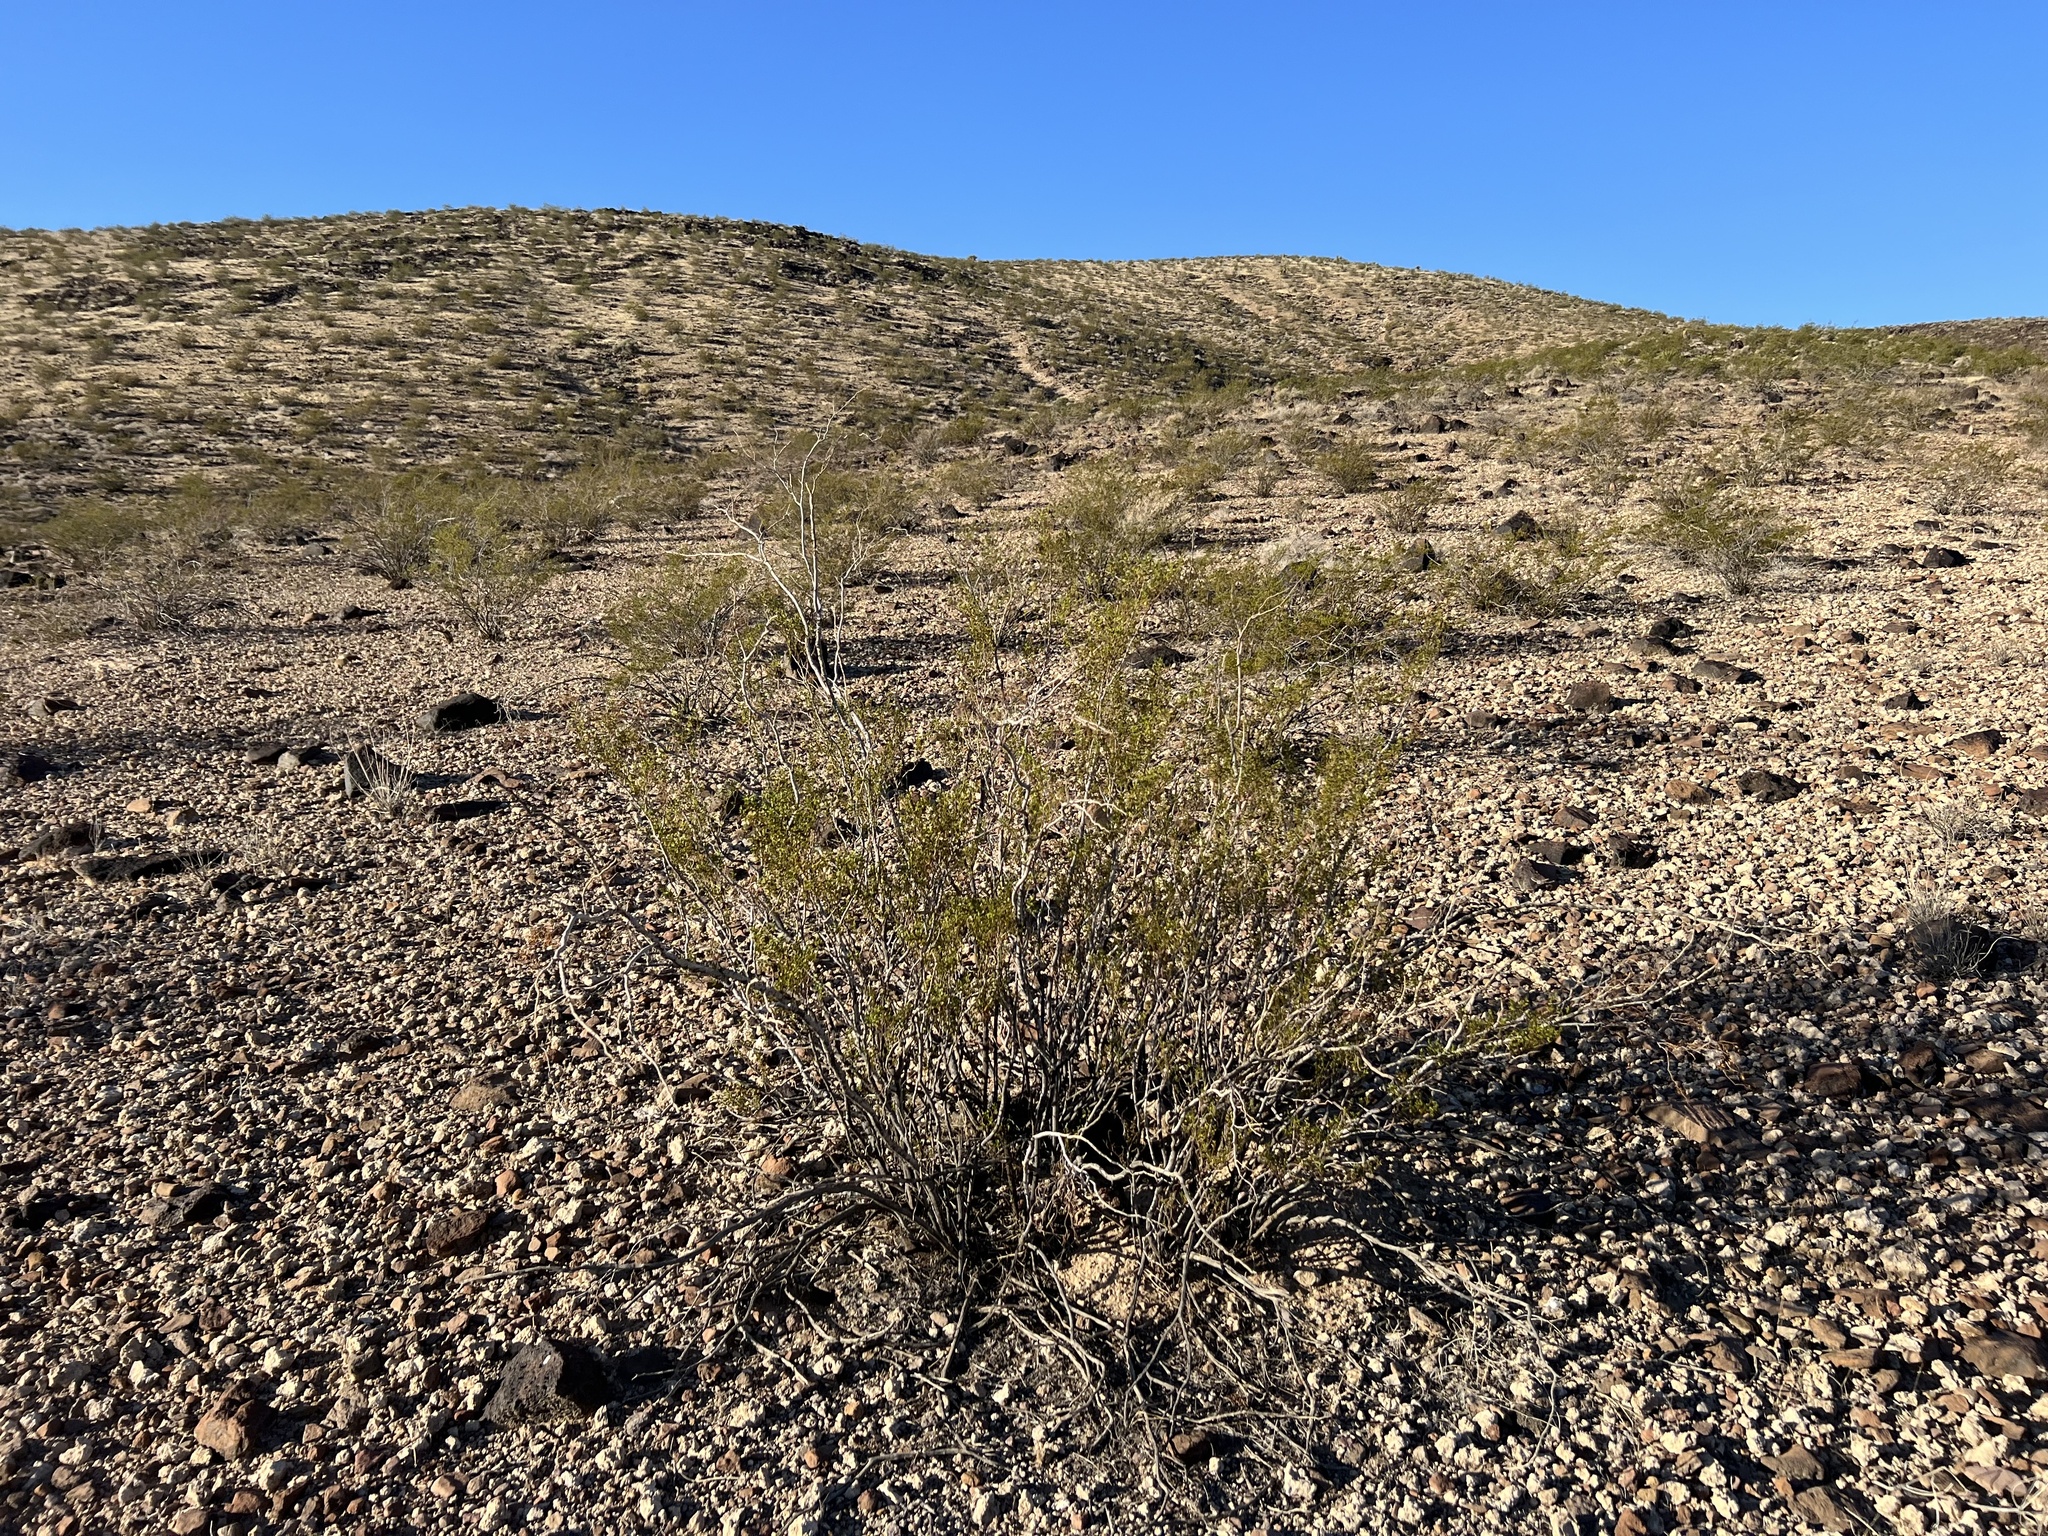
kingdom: Plantae
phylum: Tracheophyta
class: Magnoliopsida
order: Zygophyllales
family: Zygophyllaceae
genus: Larrea
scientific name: Larrea tridentata
